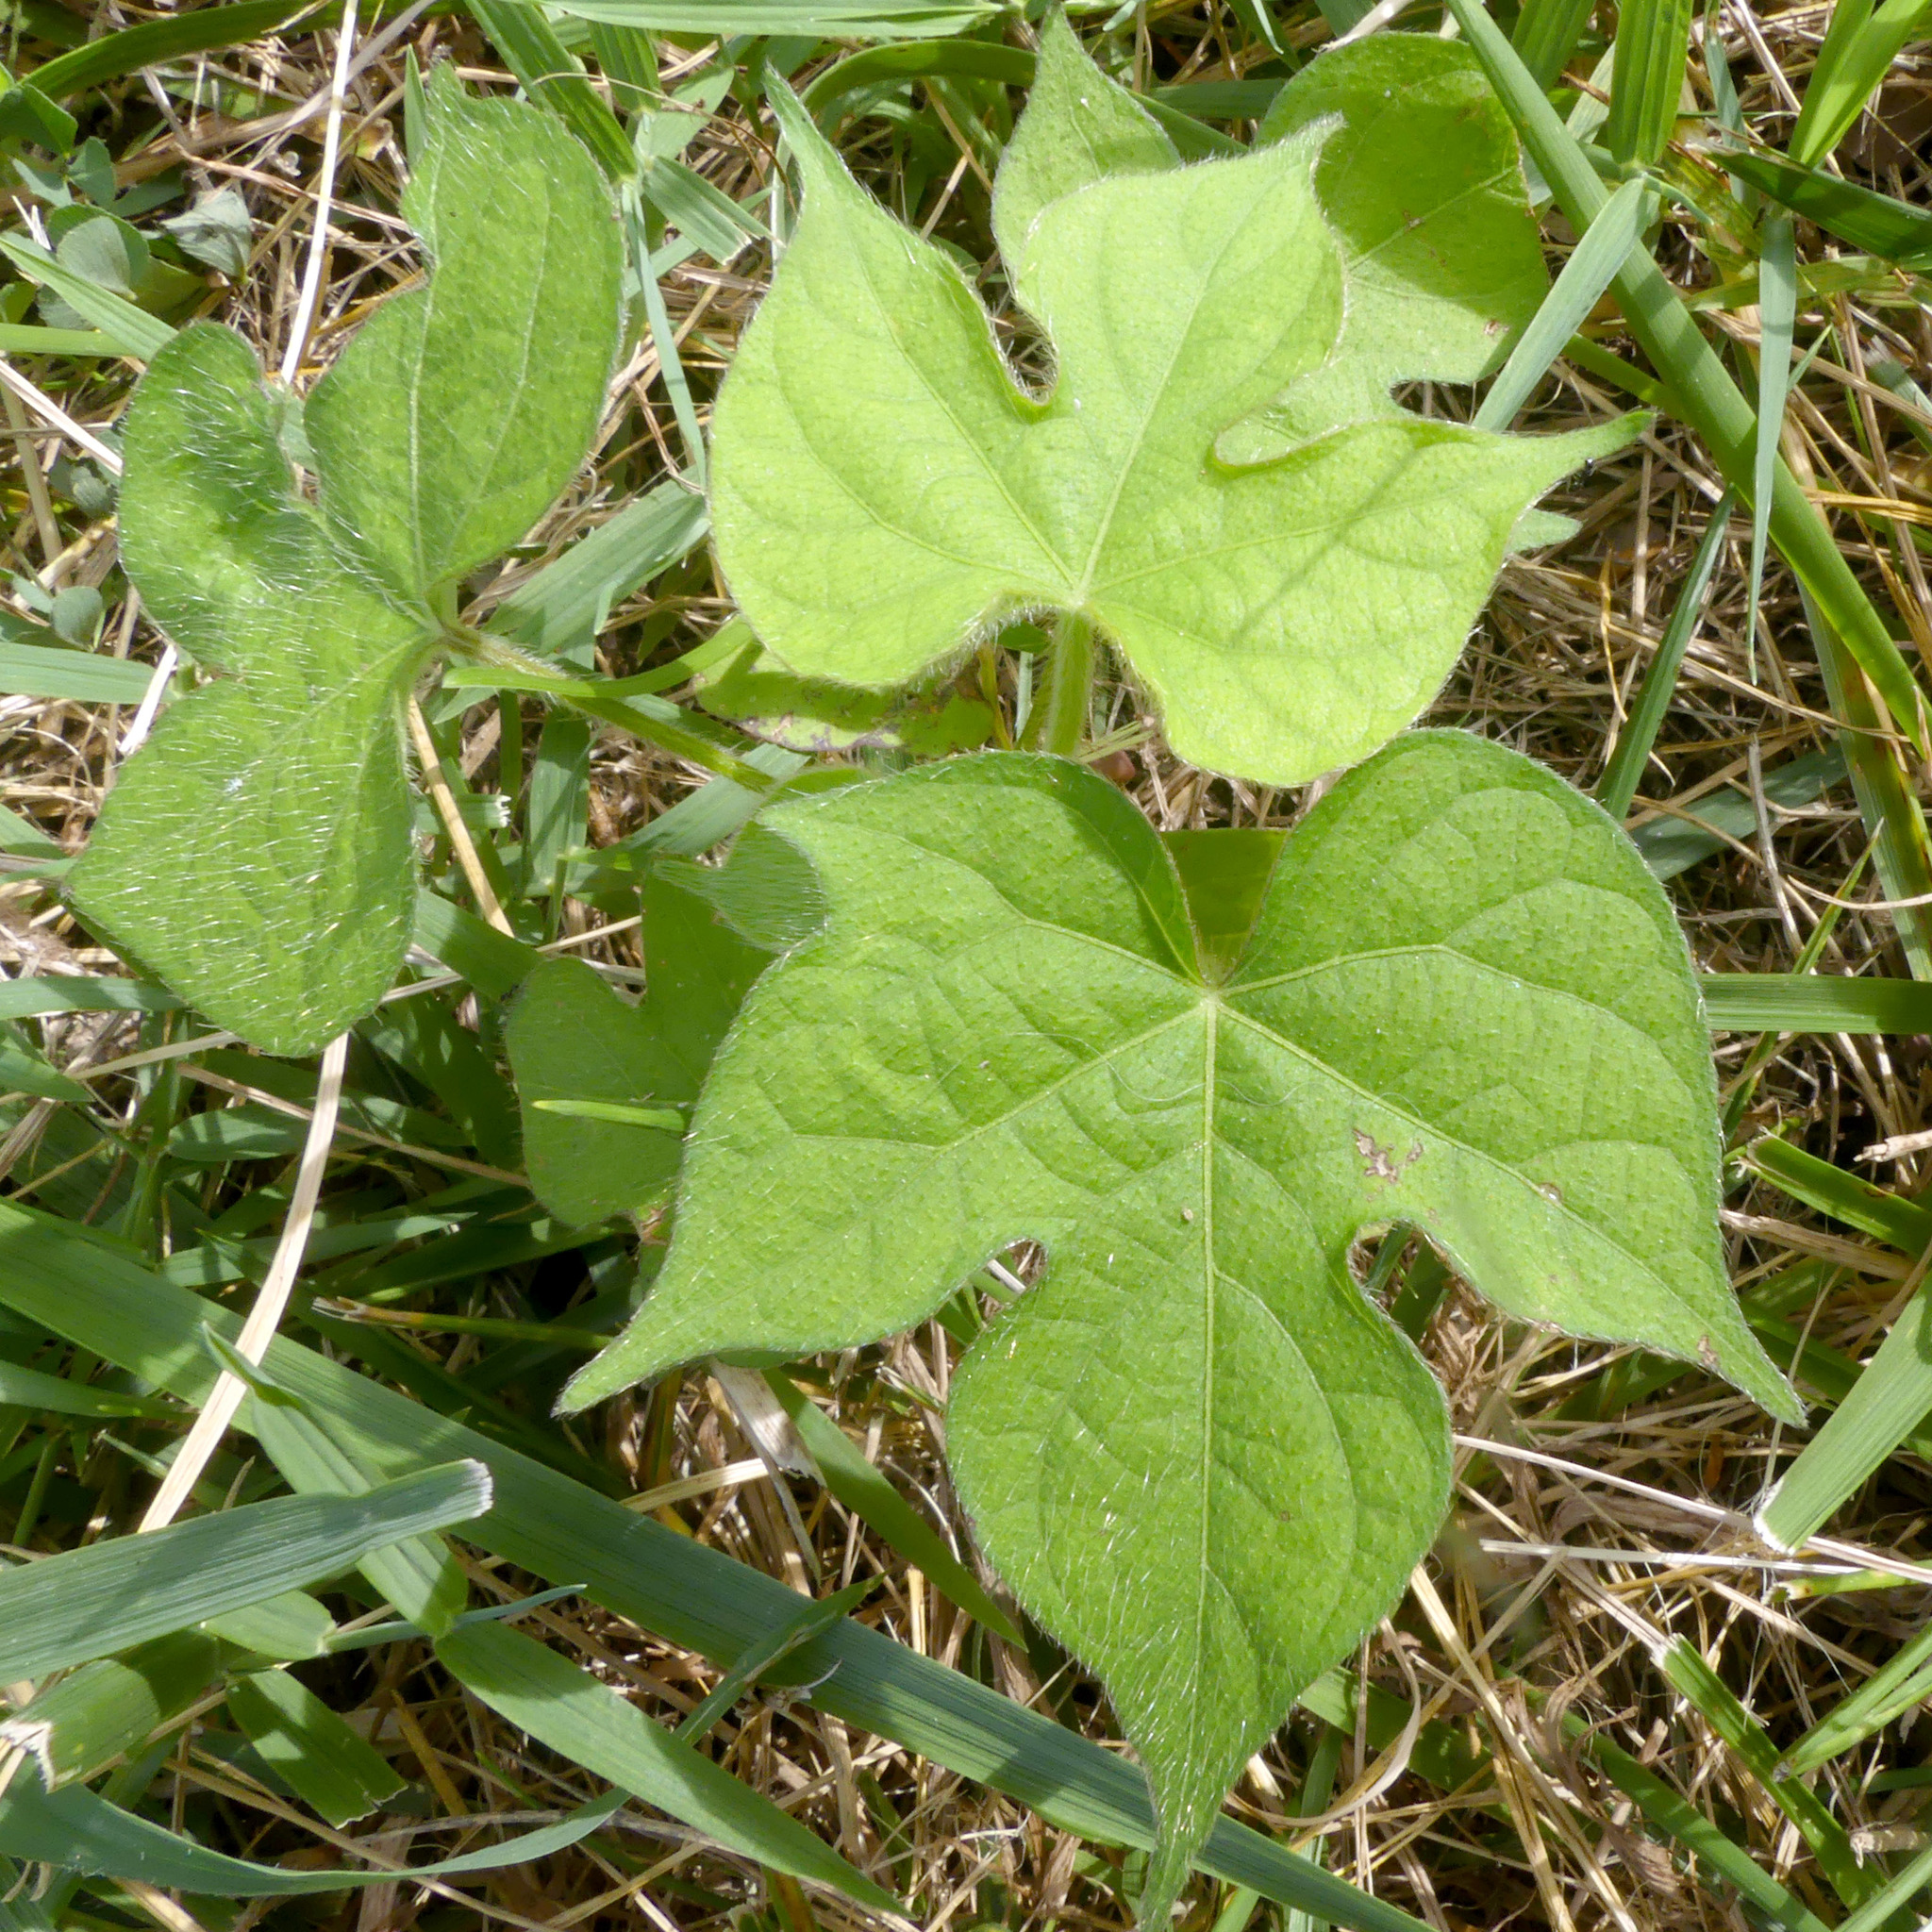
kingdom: Plantae
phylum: Tracheophyta
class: Magnoliopsida
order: Solanales
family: Convolvulaceae
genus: Ipomoea
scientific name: Ipomoea hederacea
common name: Ivy-leaved morning-glory
